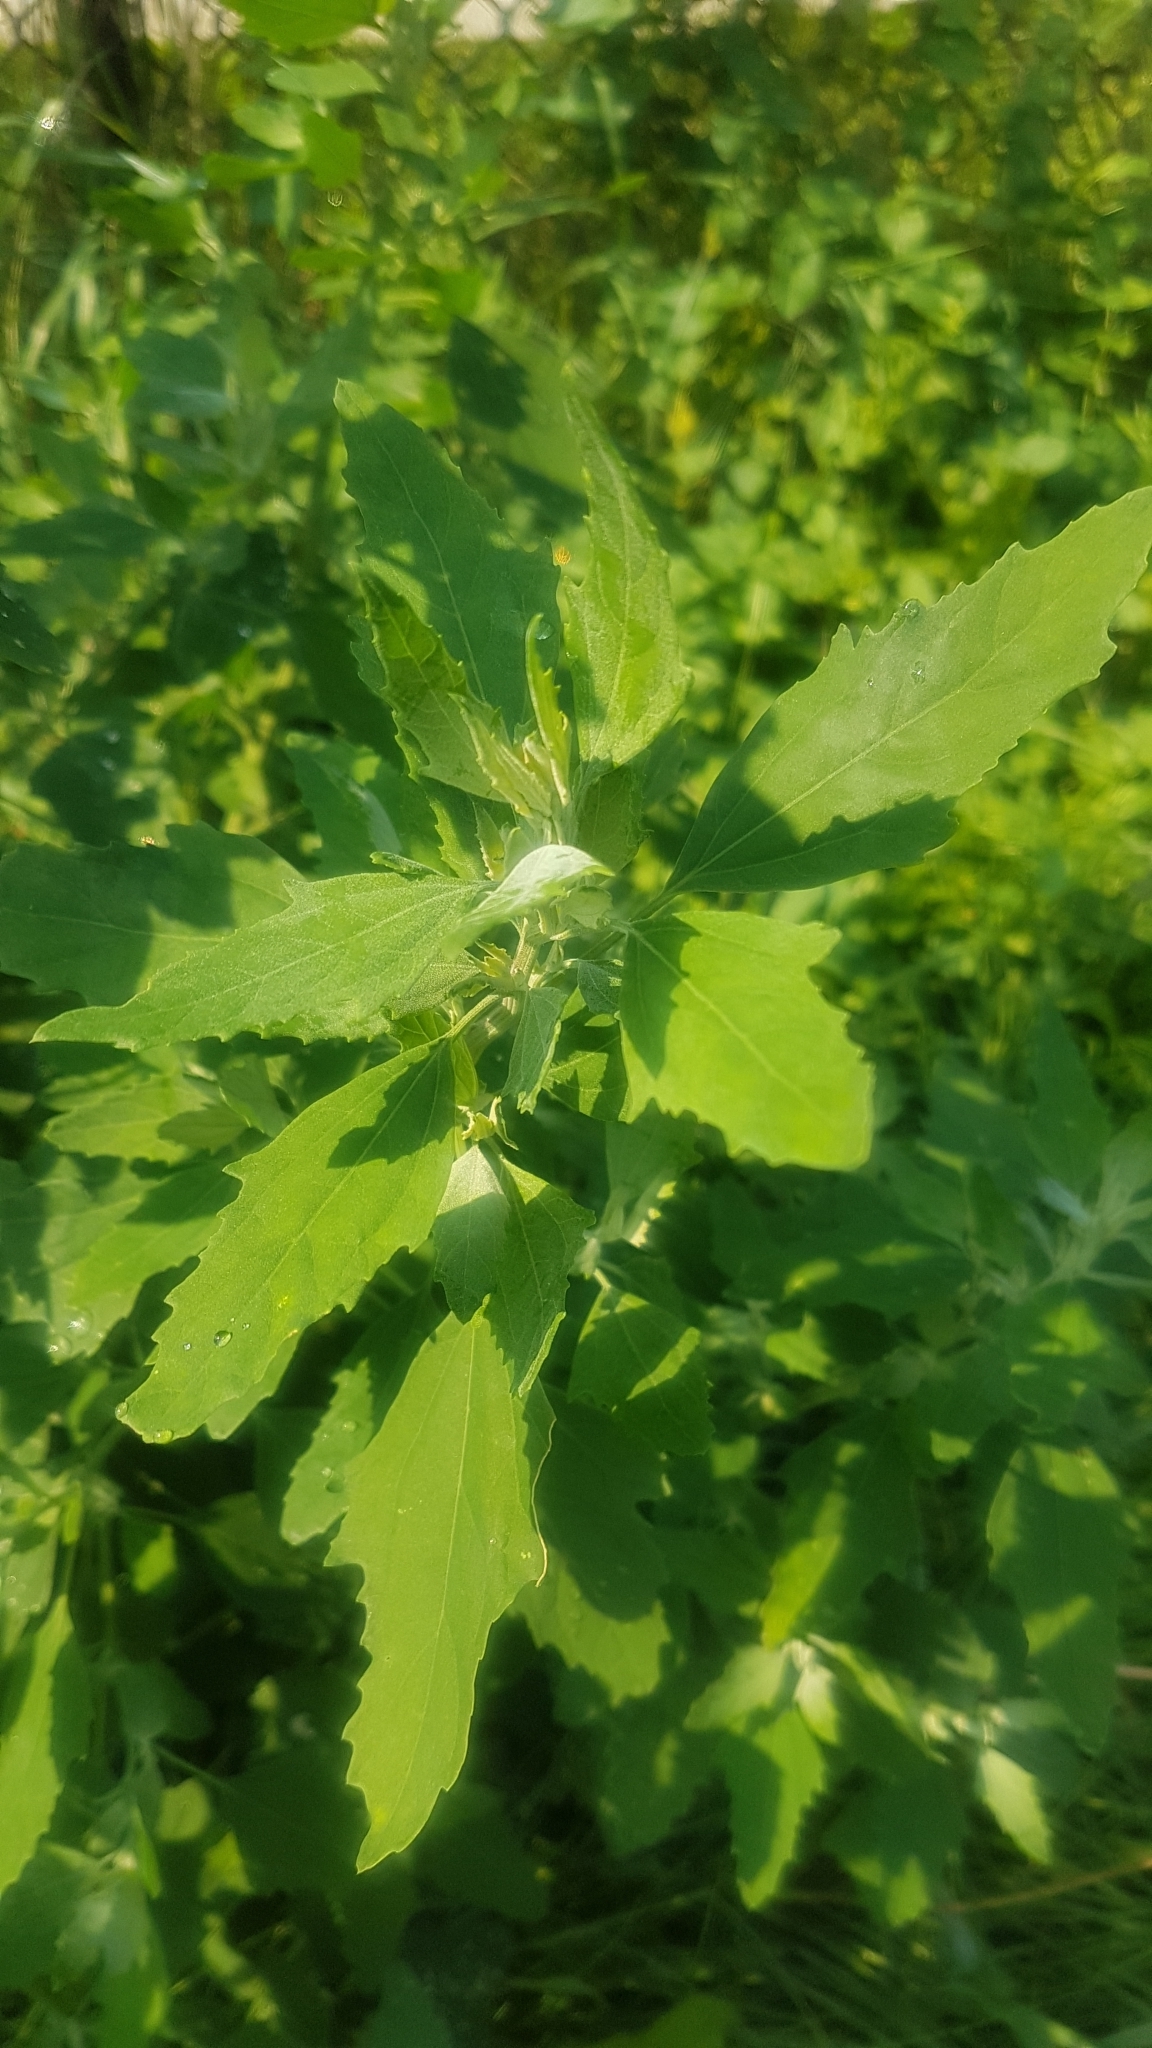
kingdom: Plantae
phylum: Tracheophyta
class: Magnoliopsida
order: Caryophyllales
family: Amaranthaceae
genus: Chenopodium
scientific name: Chenopodium album
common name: Fat-hen
